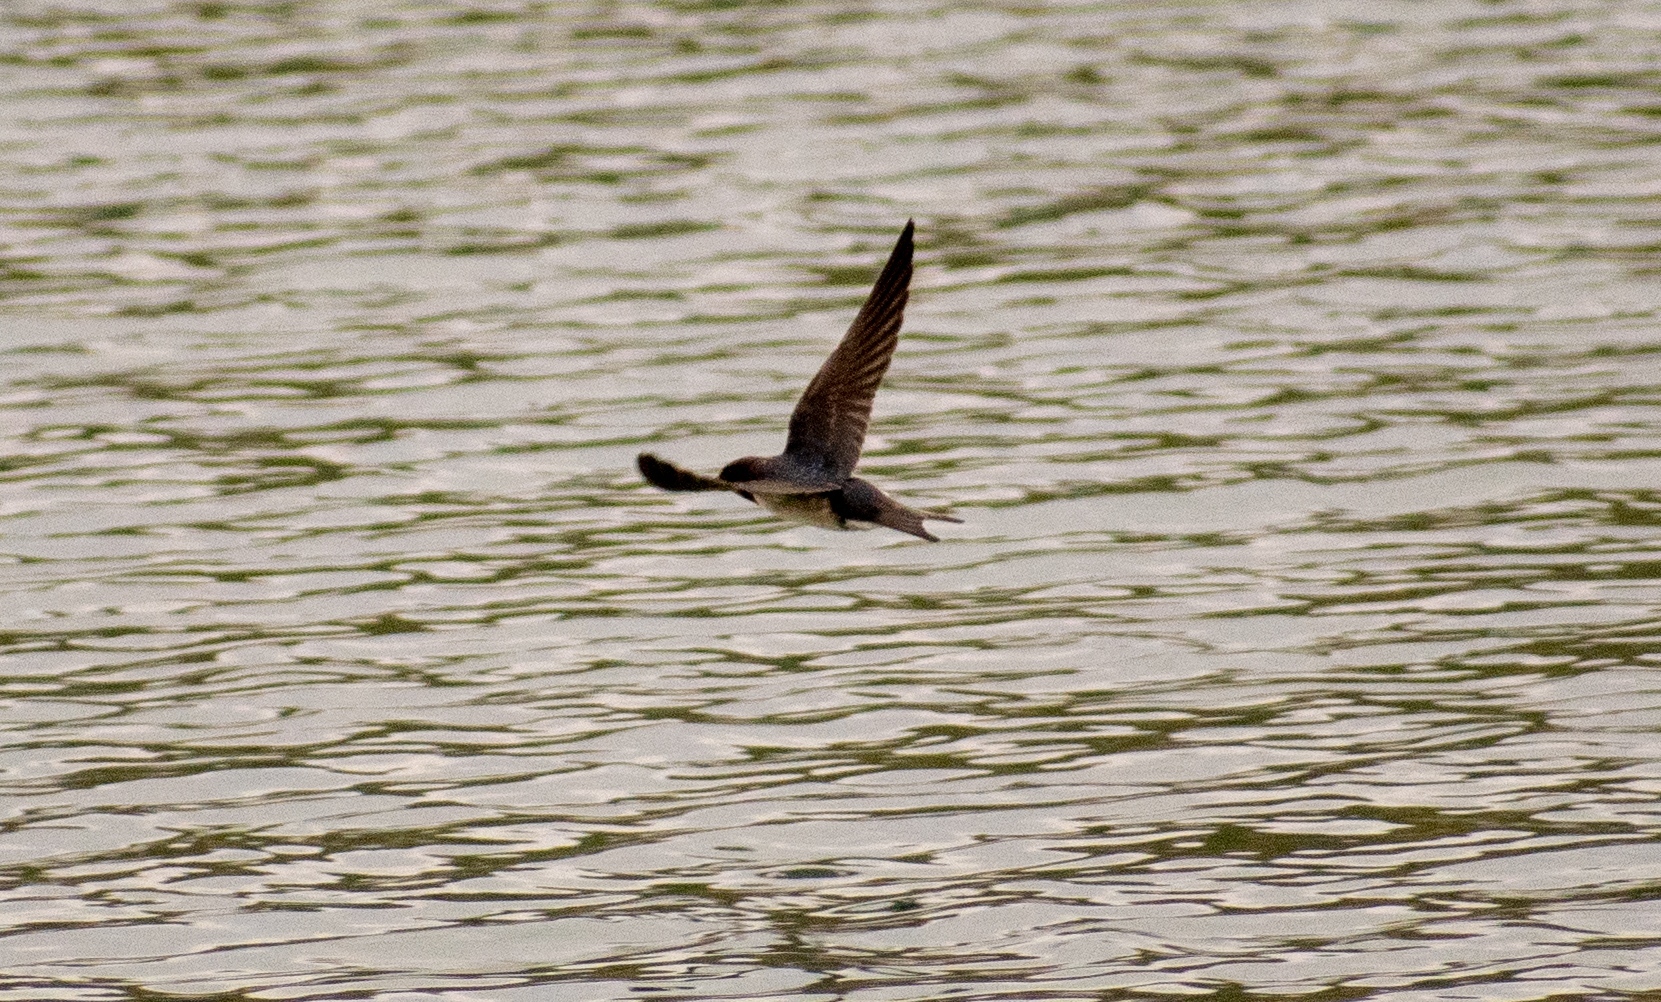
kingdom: Animalia
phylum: Chordata
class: Aves
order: Passeriformes
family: Hirundinidae
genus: Hirundo
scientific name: Hirundo rustica
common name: Barn swallow
